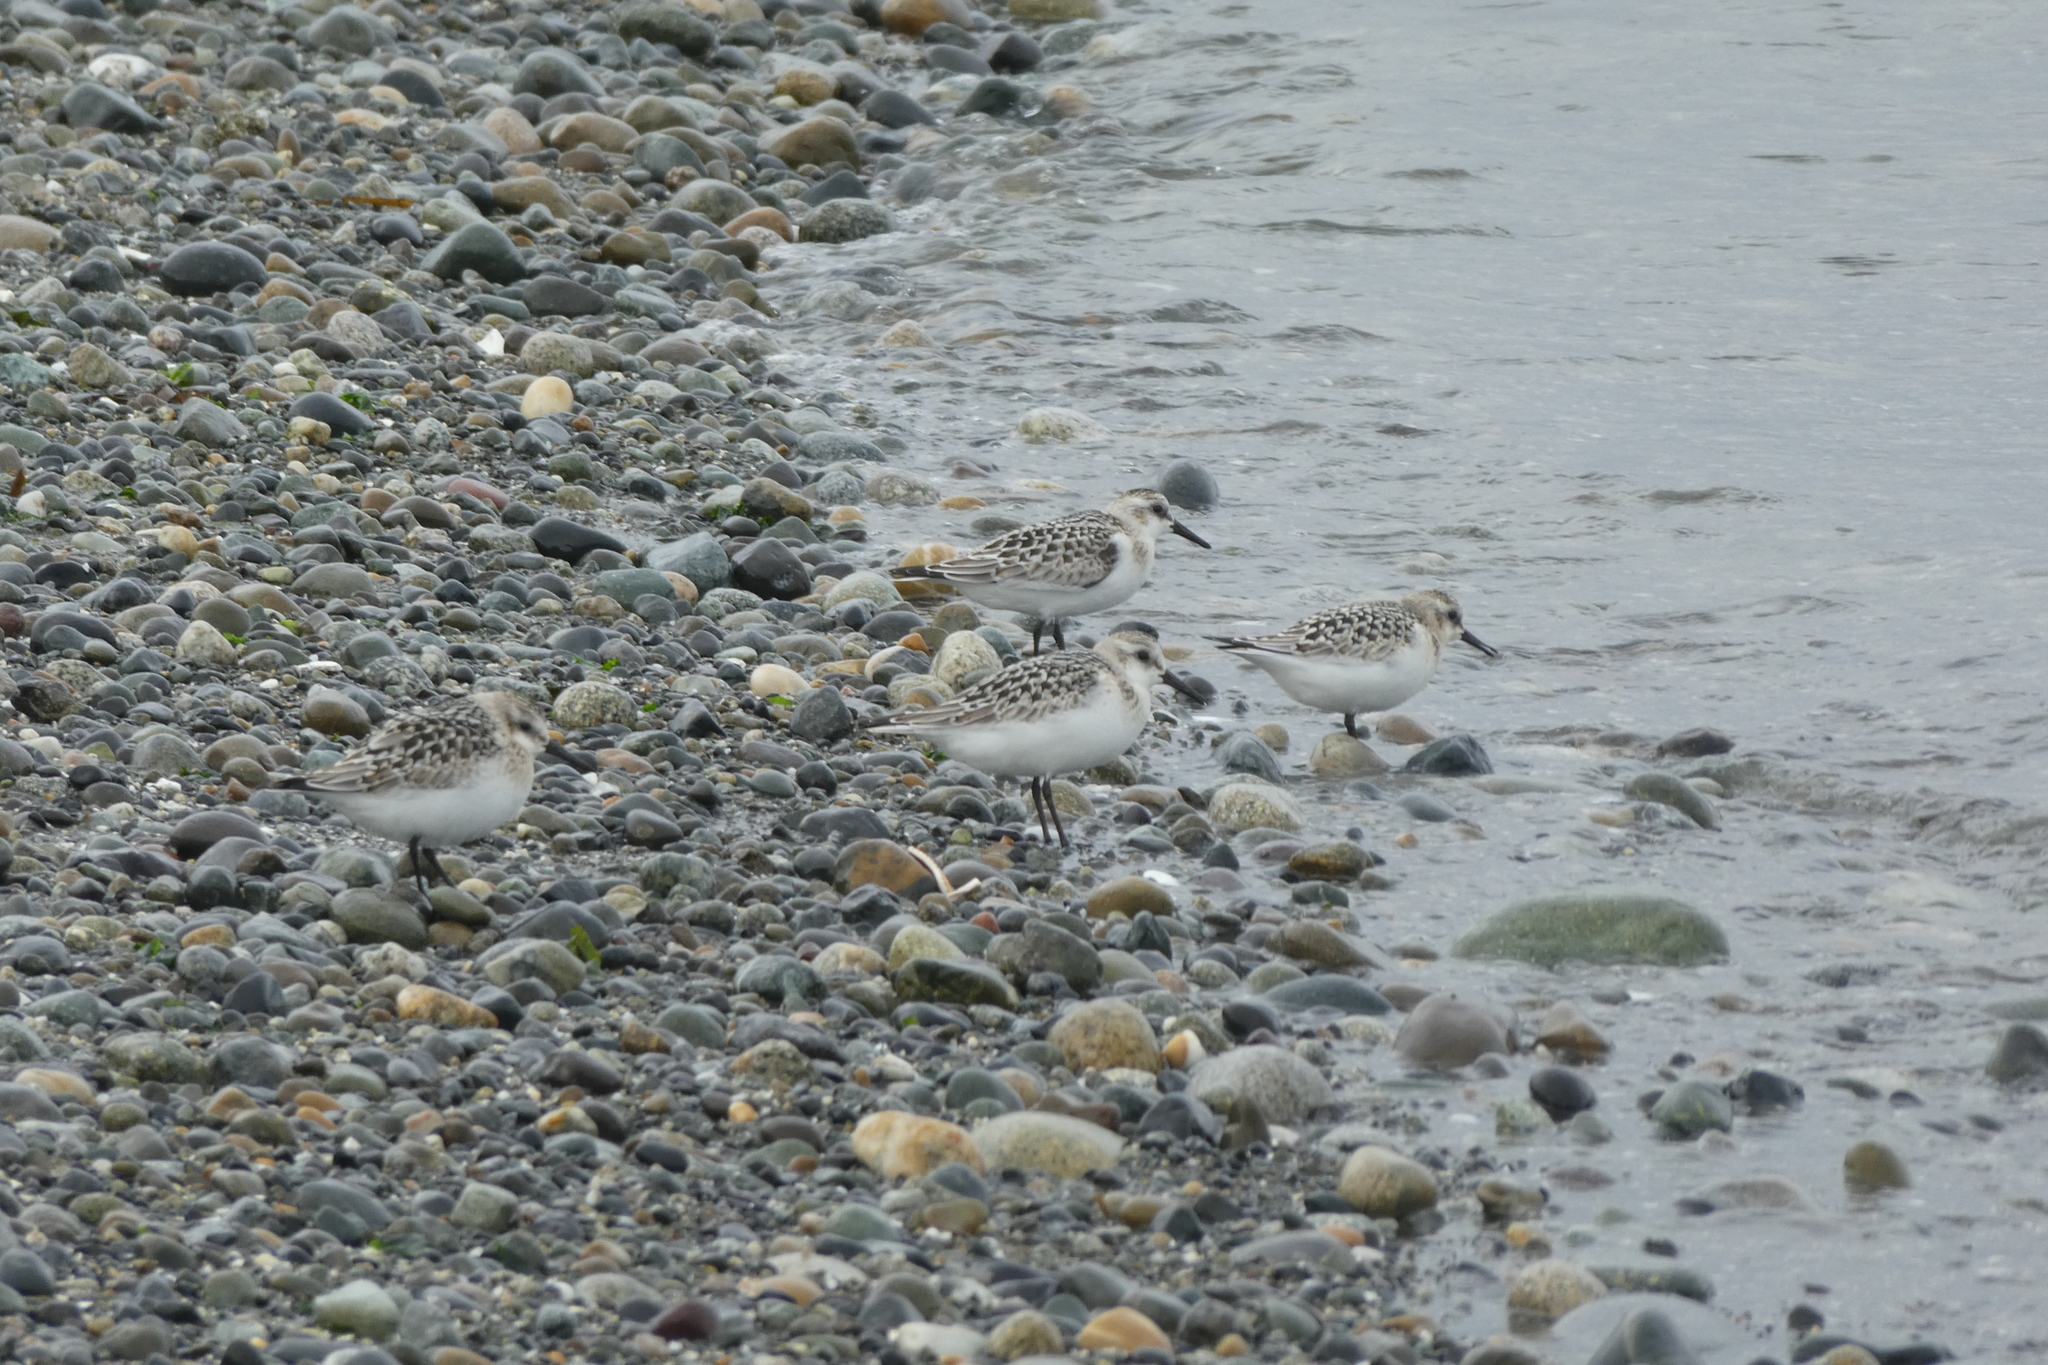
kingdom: Animalia
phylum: Chordata
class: Aves
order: Charadriiformes
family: Scolopacidae
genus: Calidris
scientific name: Calidris alba
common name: Sanderling
